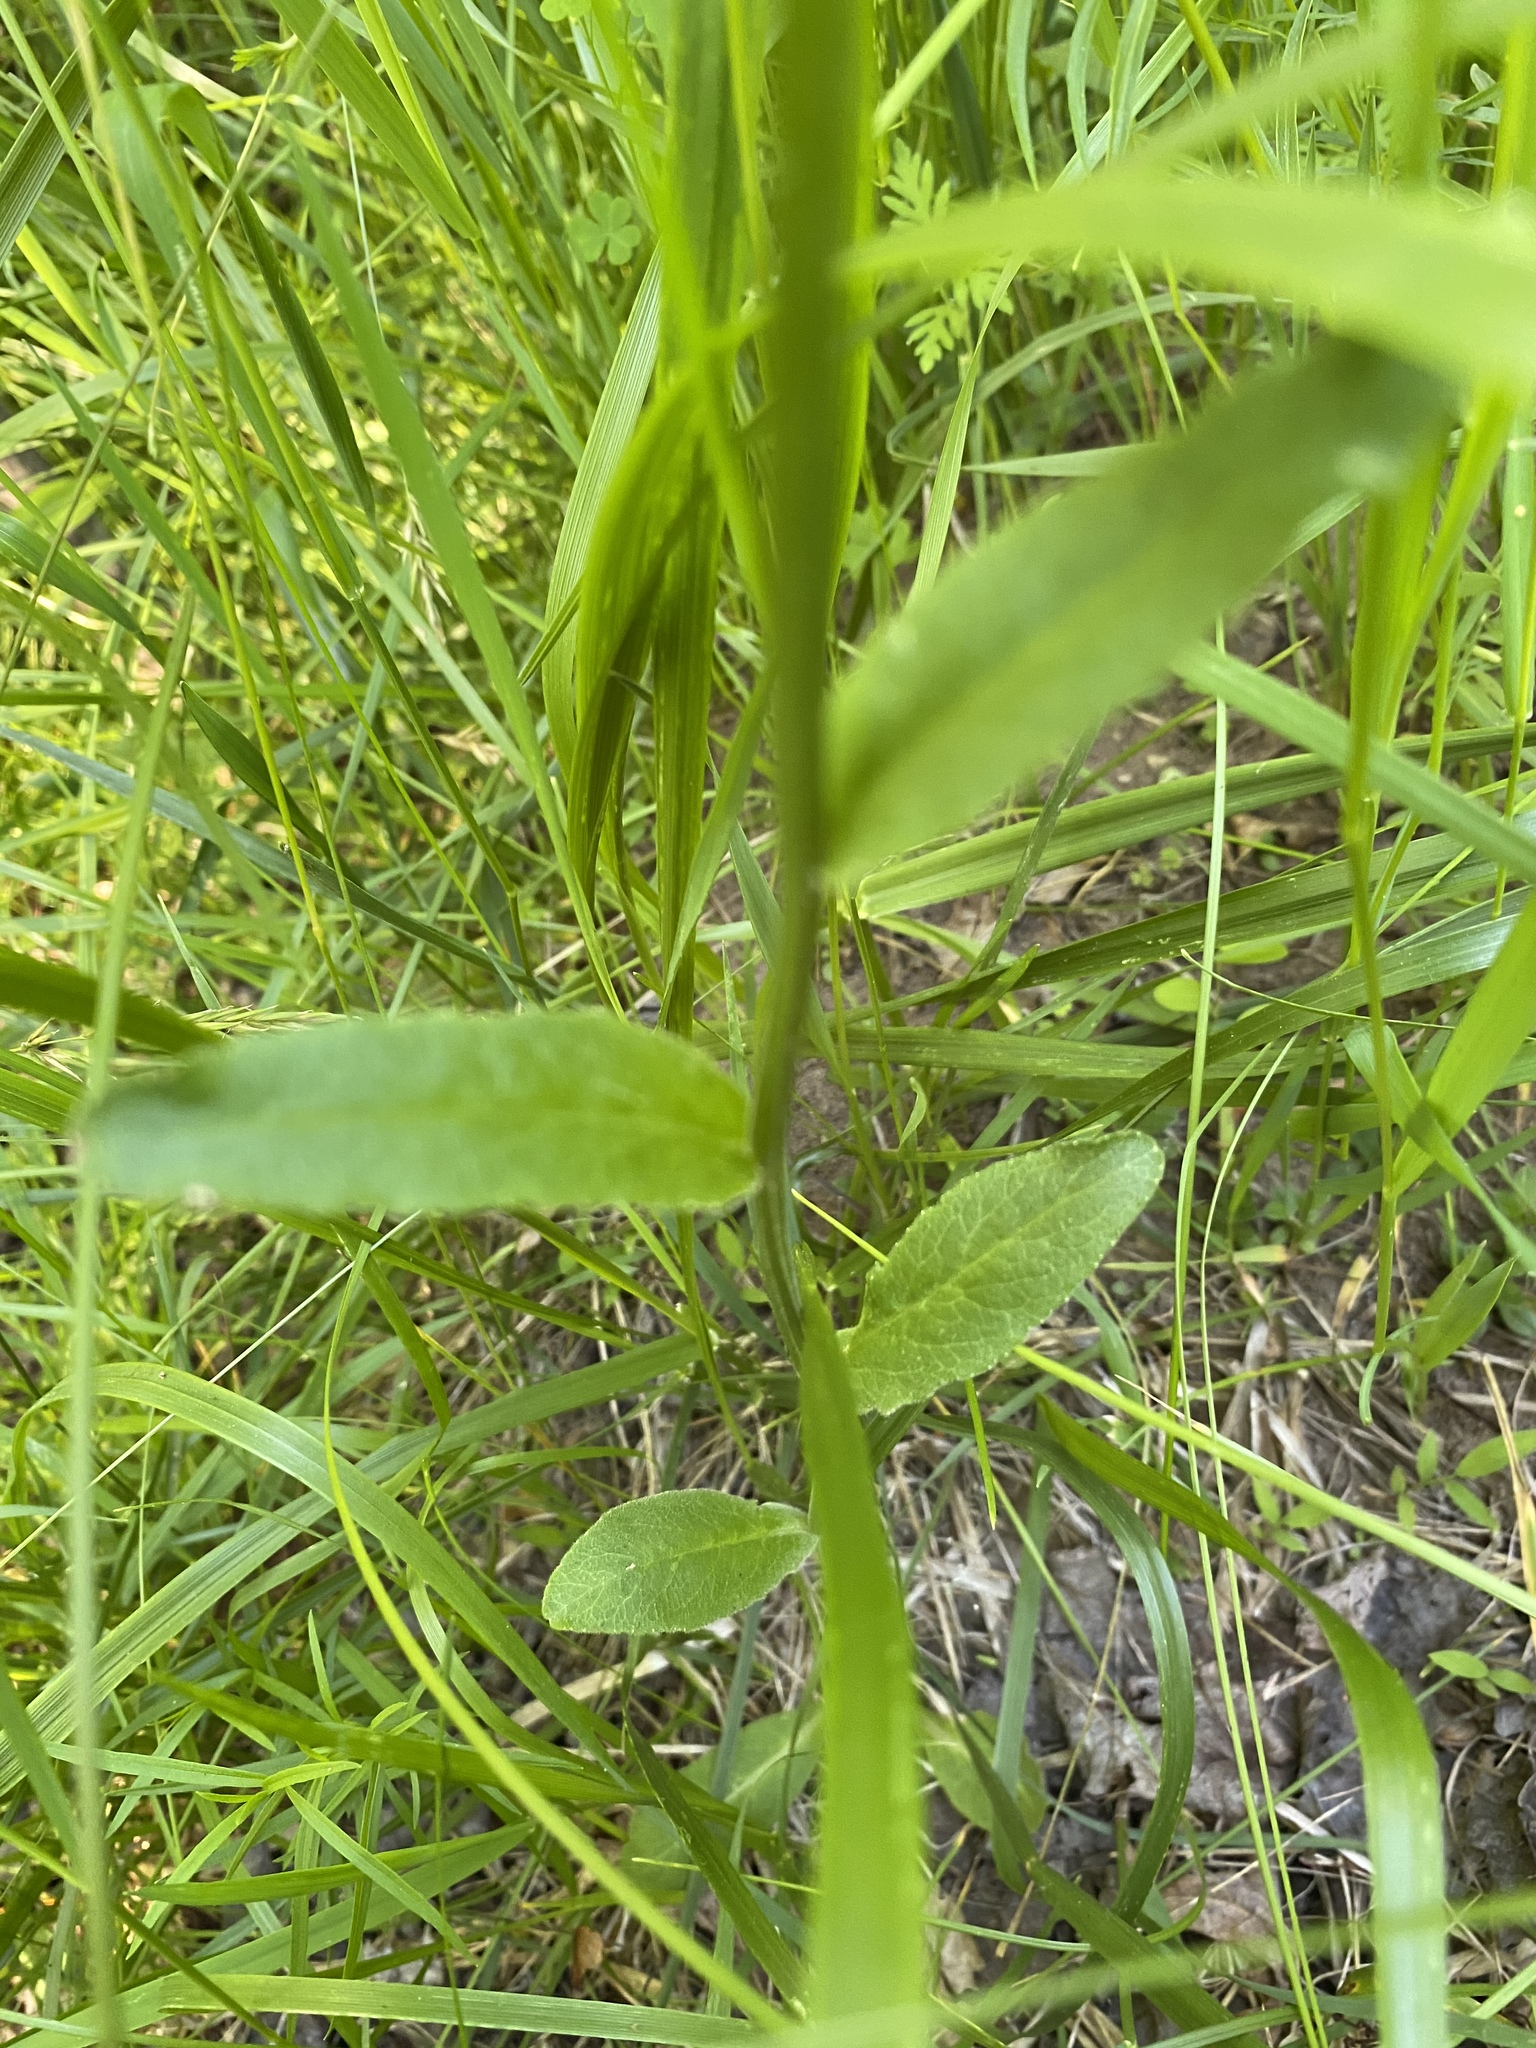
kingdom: Plantae
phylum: Tracheophyta
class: Magnoliopsida
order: Asterales
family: Campanulaceae
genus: Lobelia
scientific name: Lobelia spicata
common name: Pale-spike lobelia
